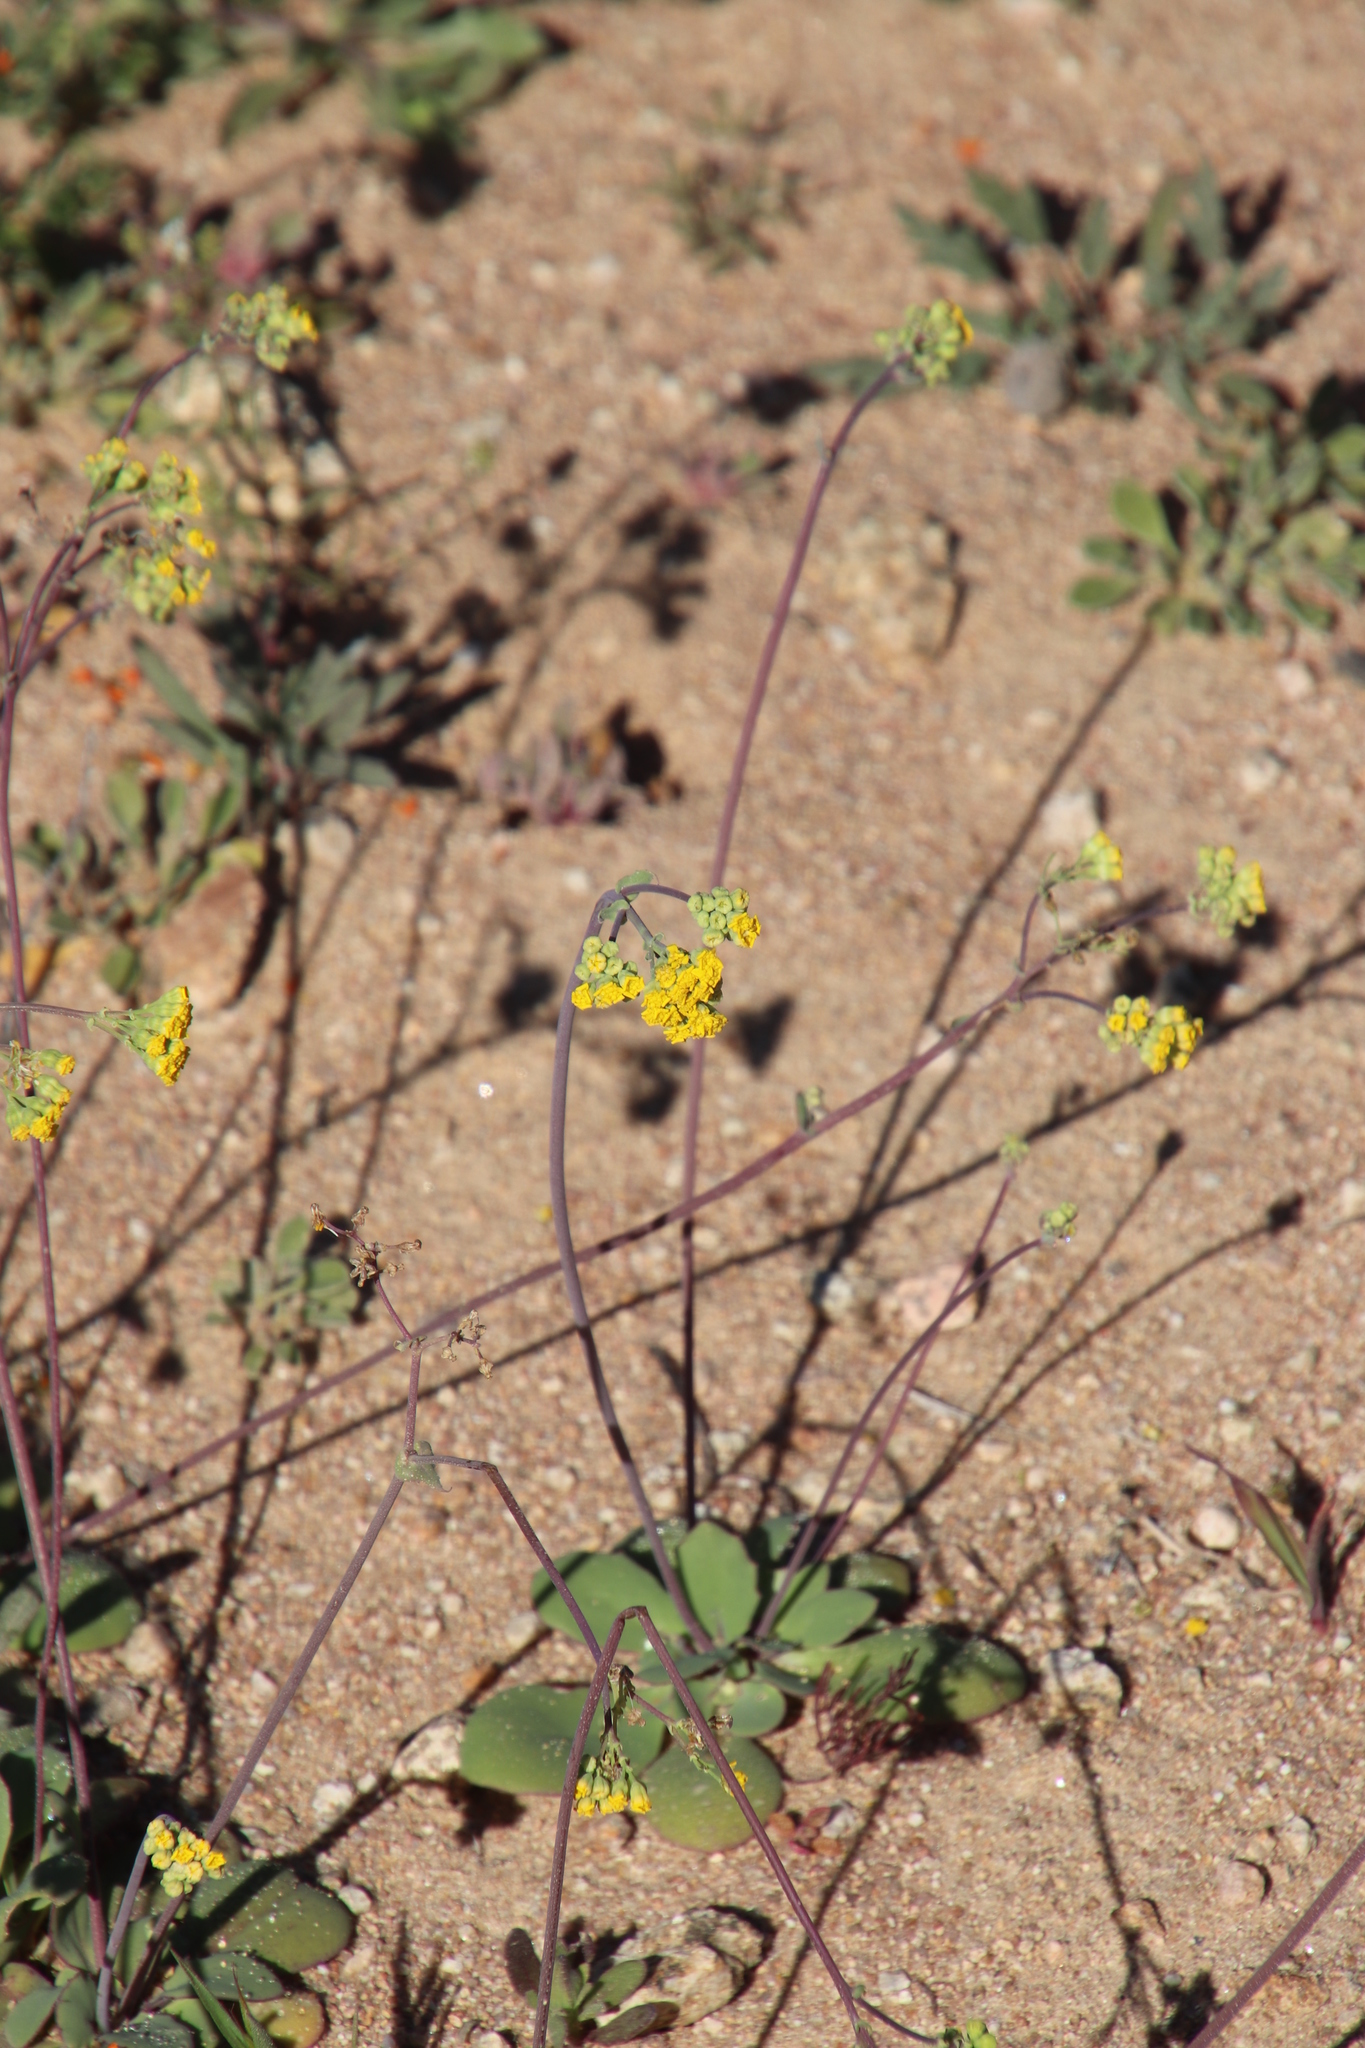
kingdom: Plantae
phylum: Tracheophyta
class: Magnoliopsida
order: Asterales
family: Asteraceae
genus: Gymnodiscus
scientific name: Gymnodiscus capillaris
